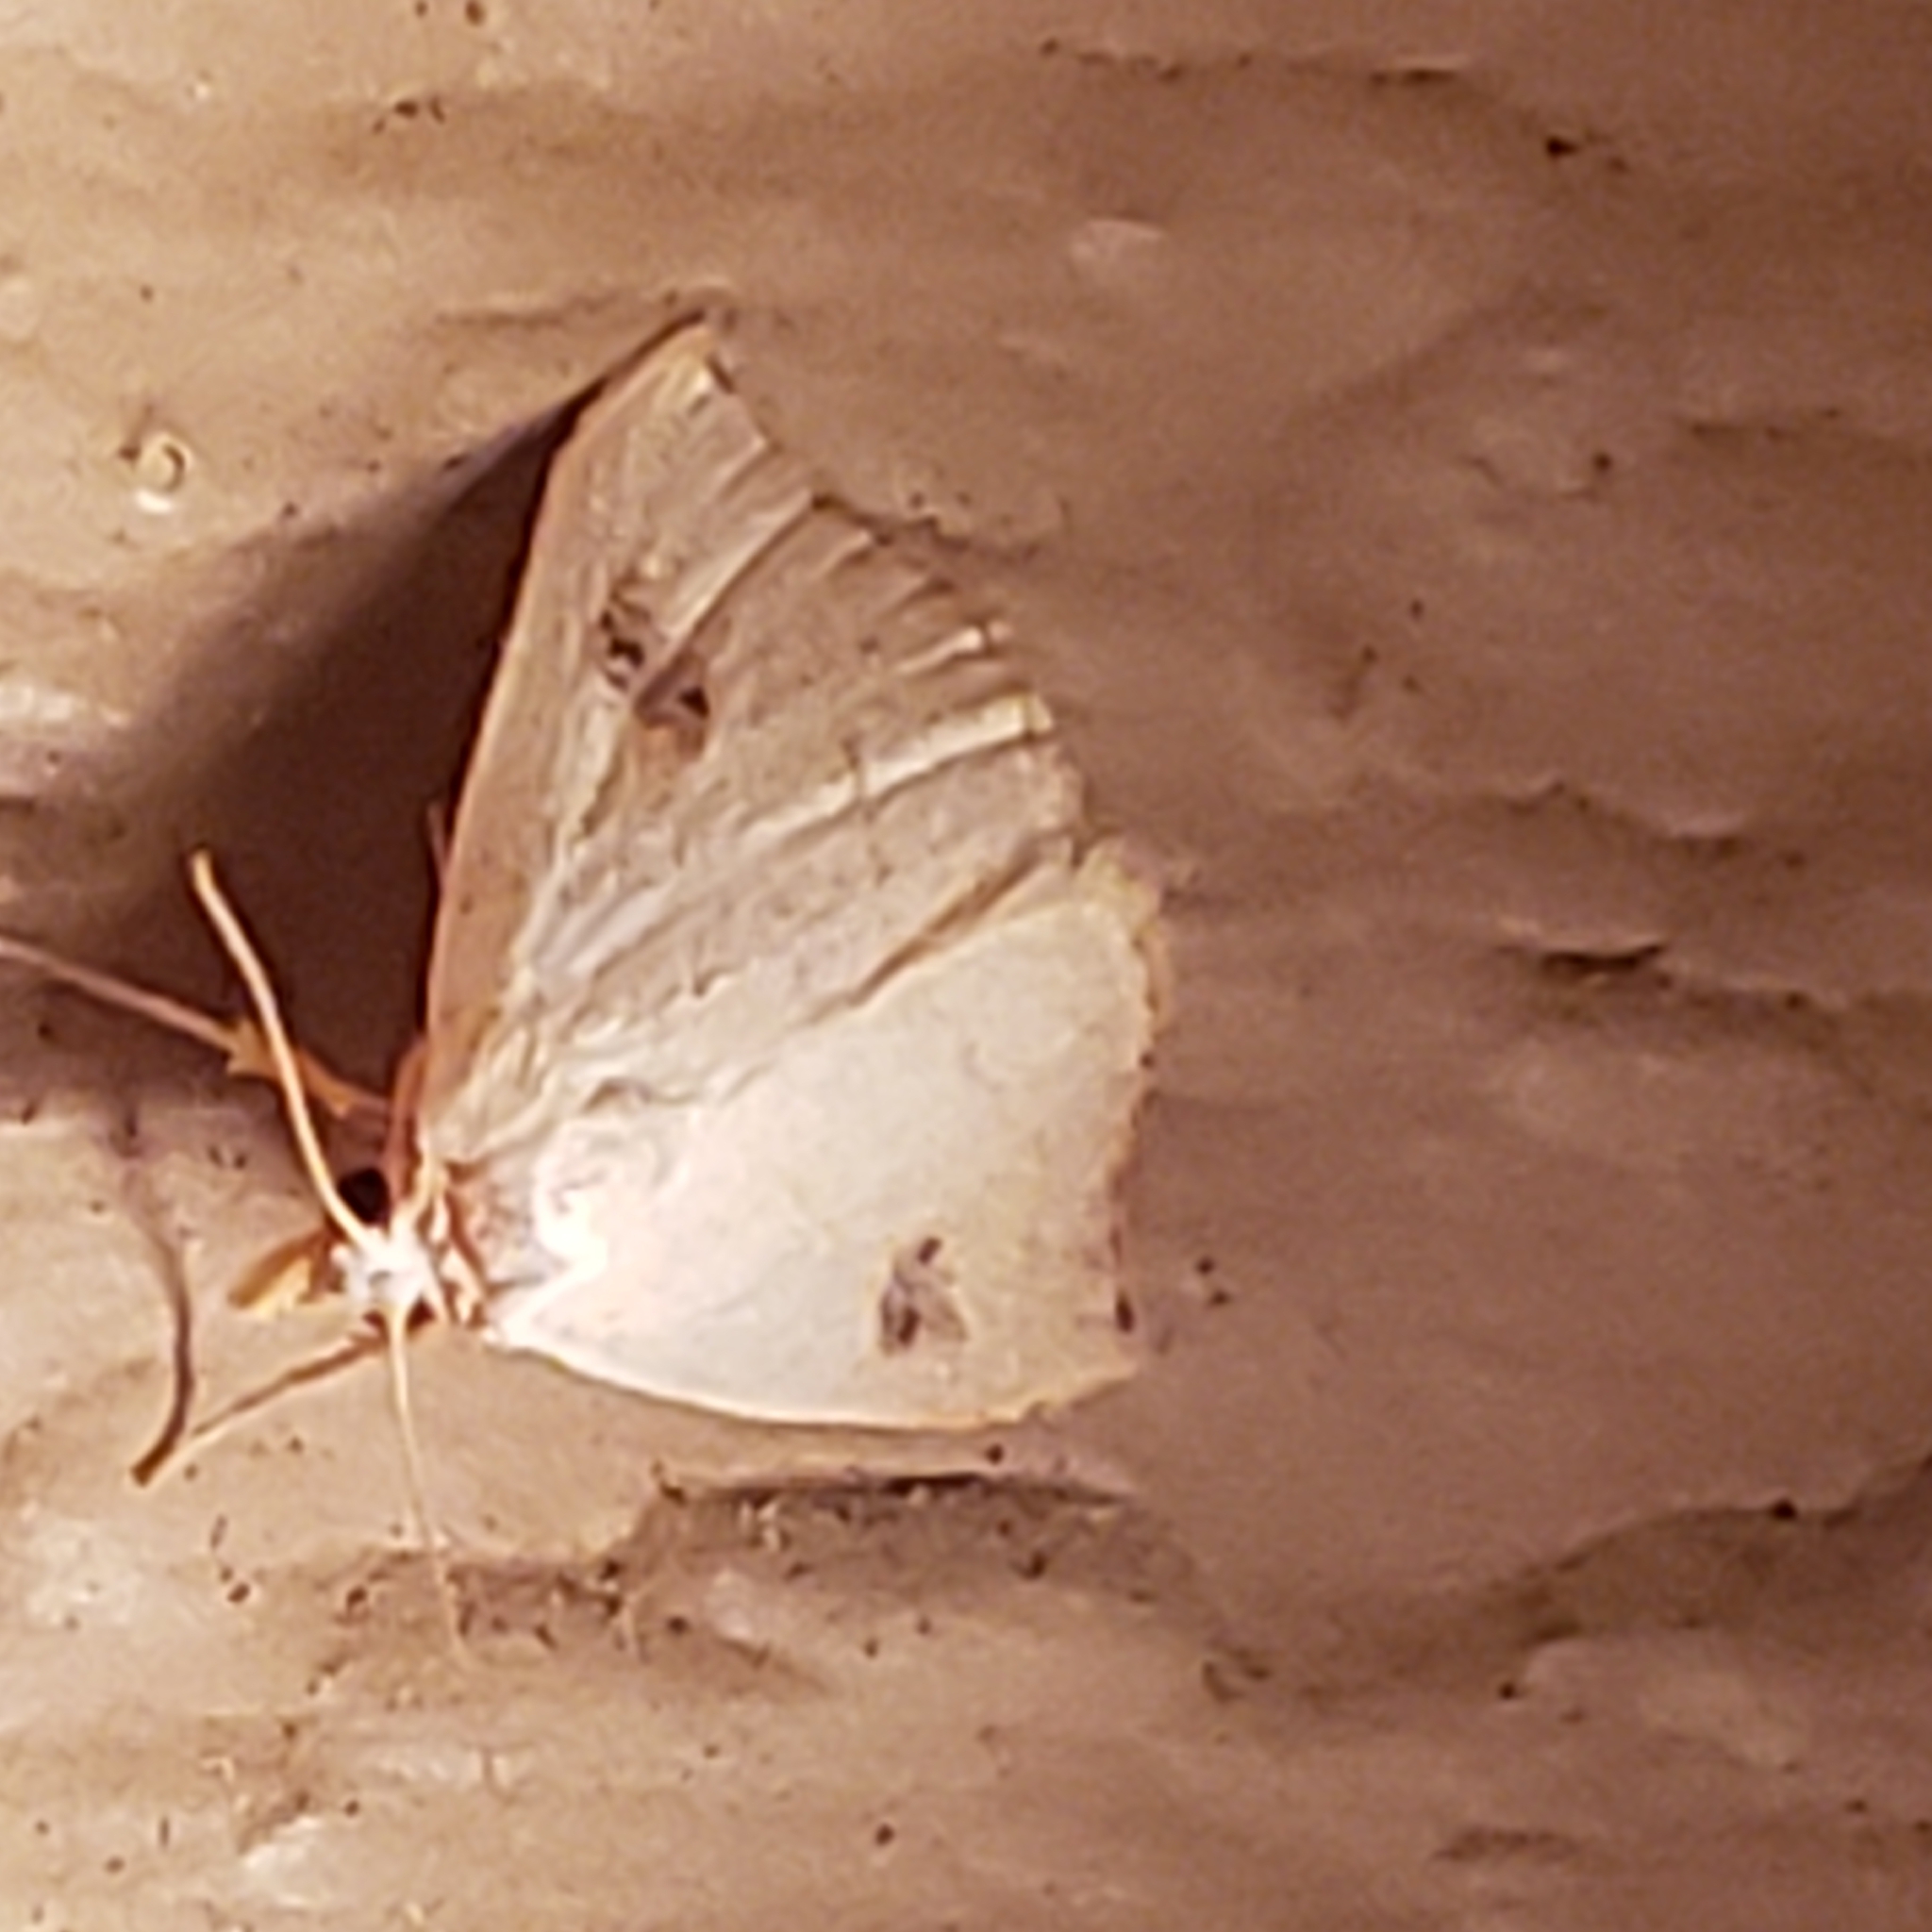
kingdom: Animalia
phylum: Arthropoda
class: Insecta
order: Lepidoptera
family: Erebidae
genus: Rivula
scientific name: Rivula propinqualis
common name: Spotted grass moth
